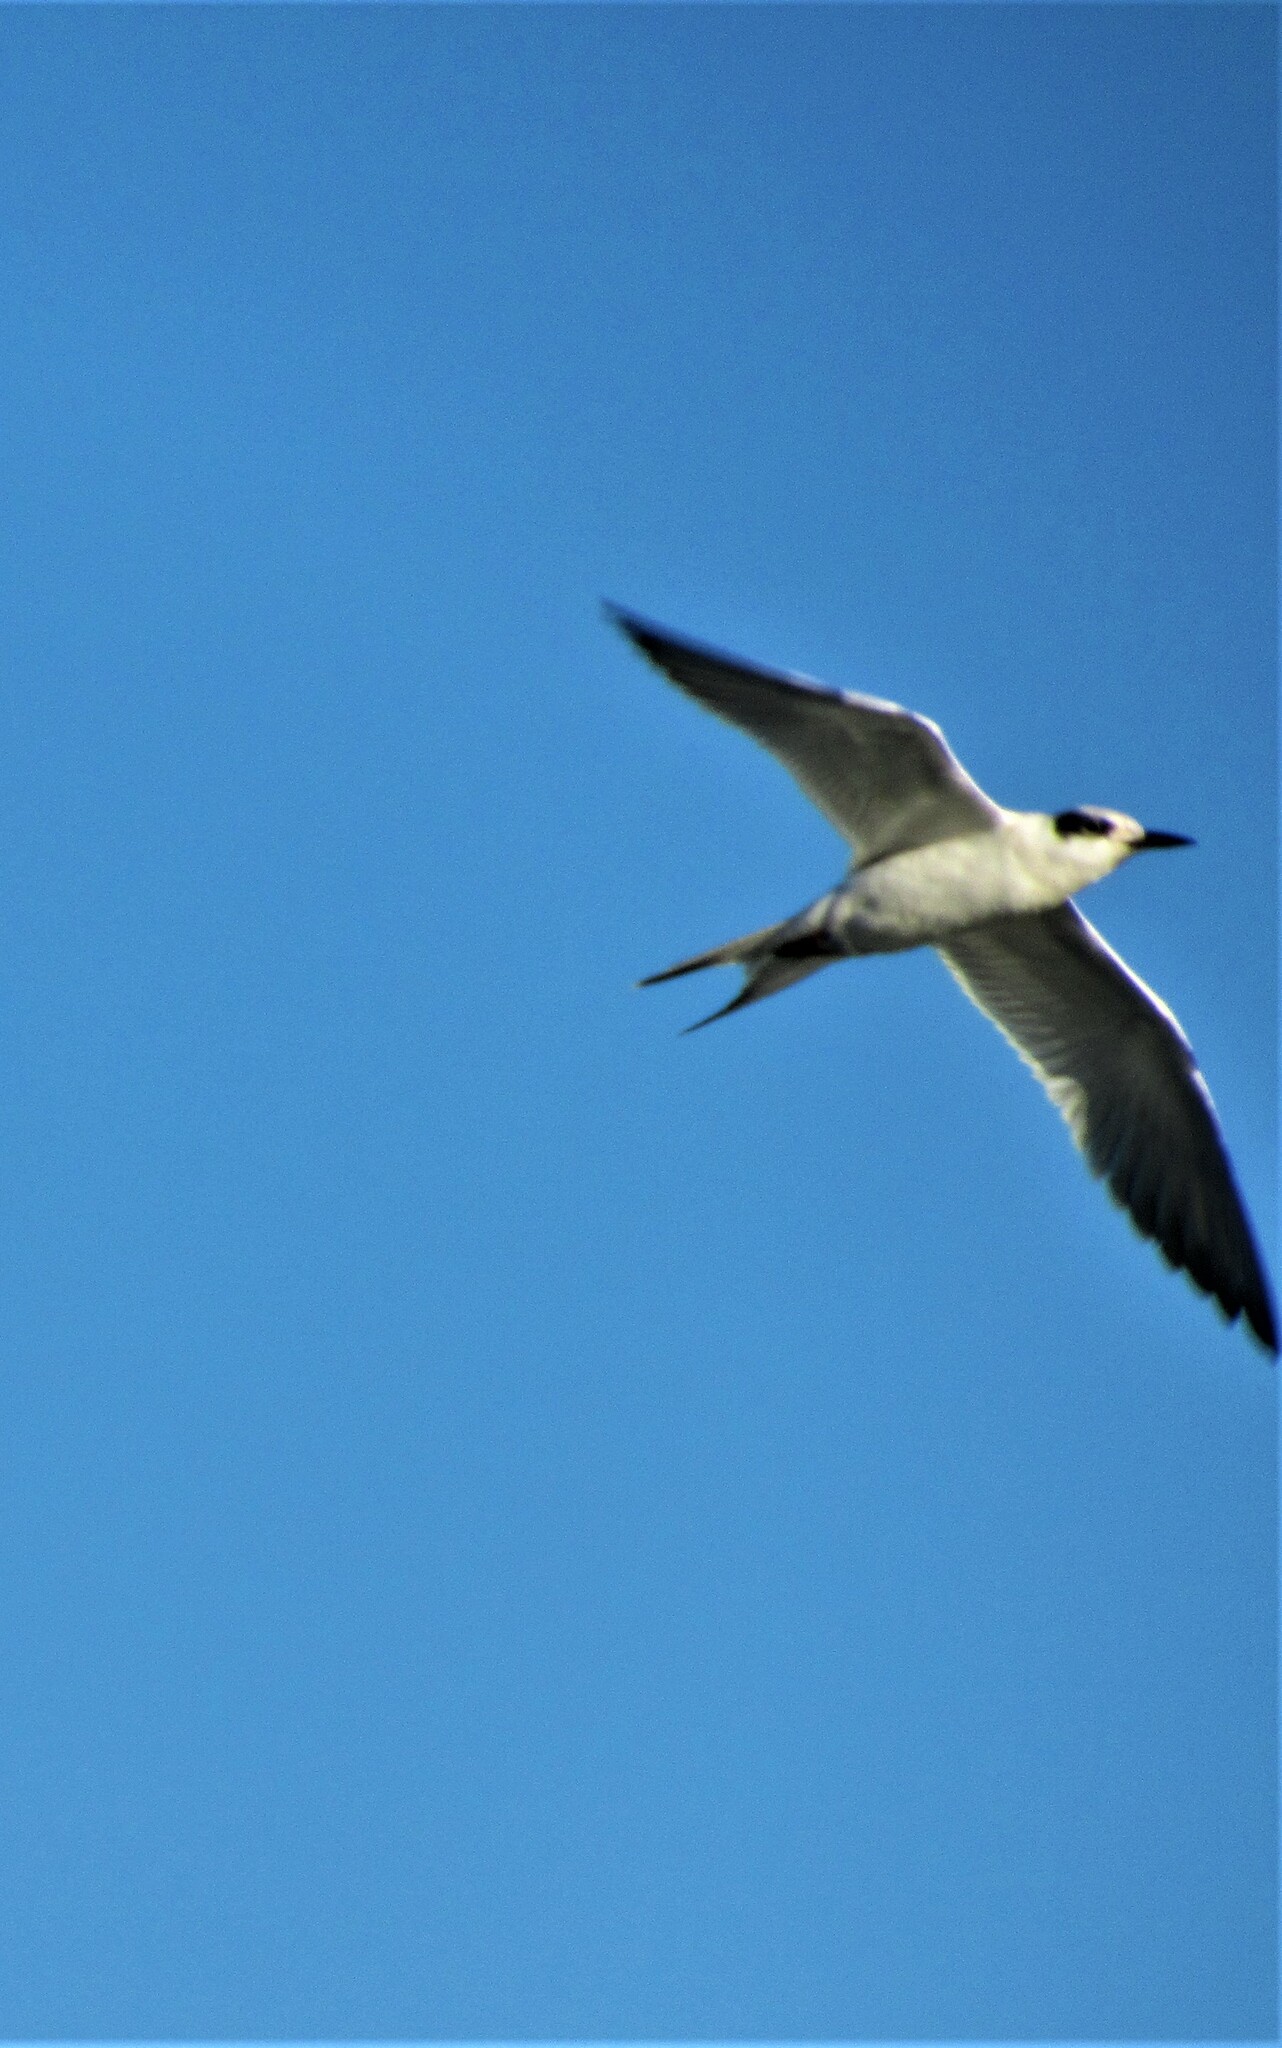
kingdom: Animalia
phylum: Chordata
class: Aves
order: Charadriiformes
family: Laridae
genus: Sterna
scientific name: Sterna forsteri
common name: Forster's tern
